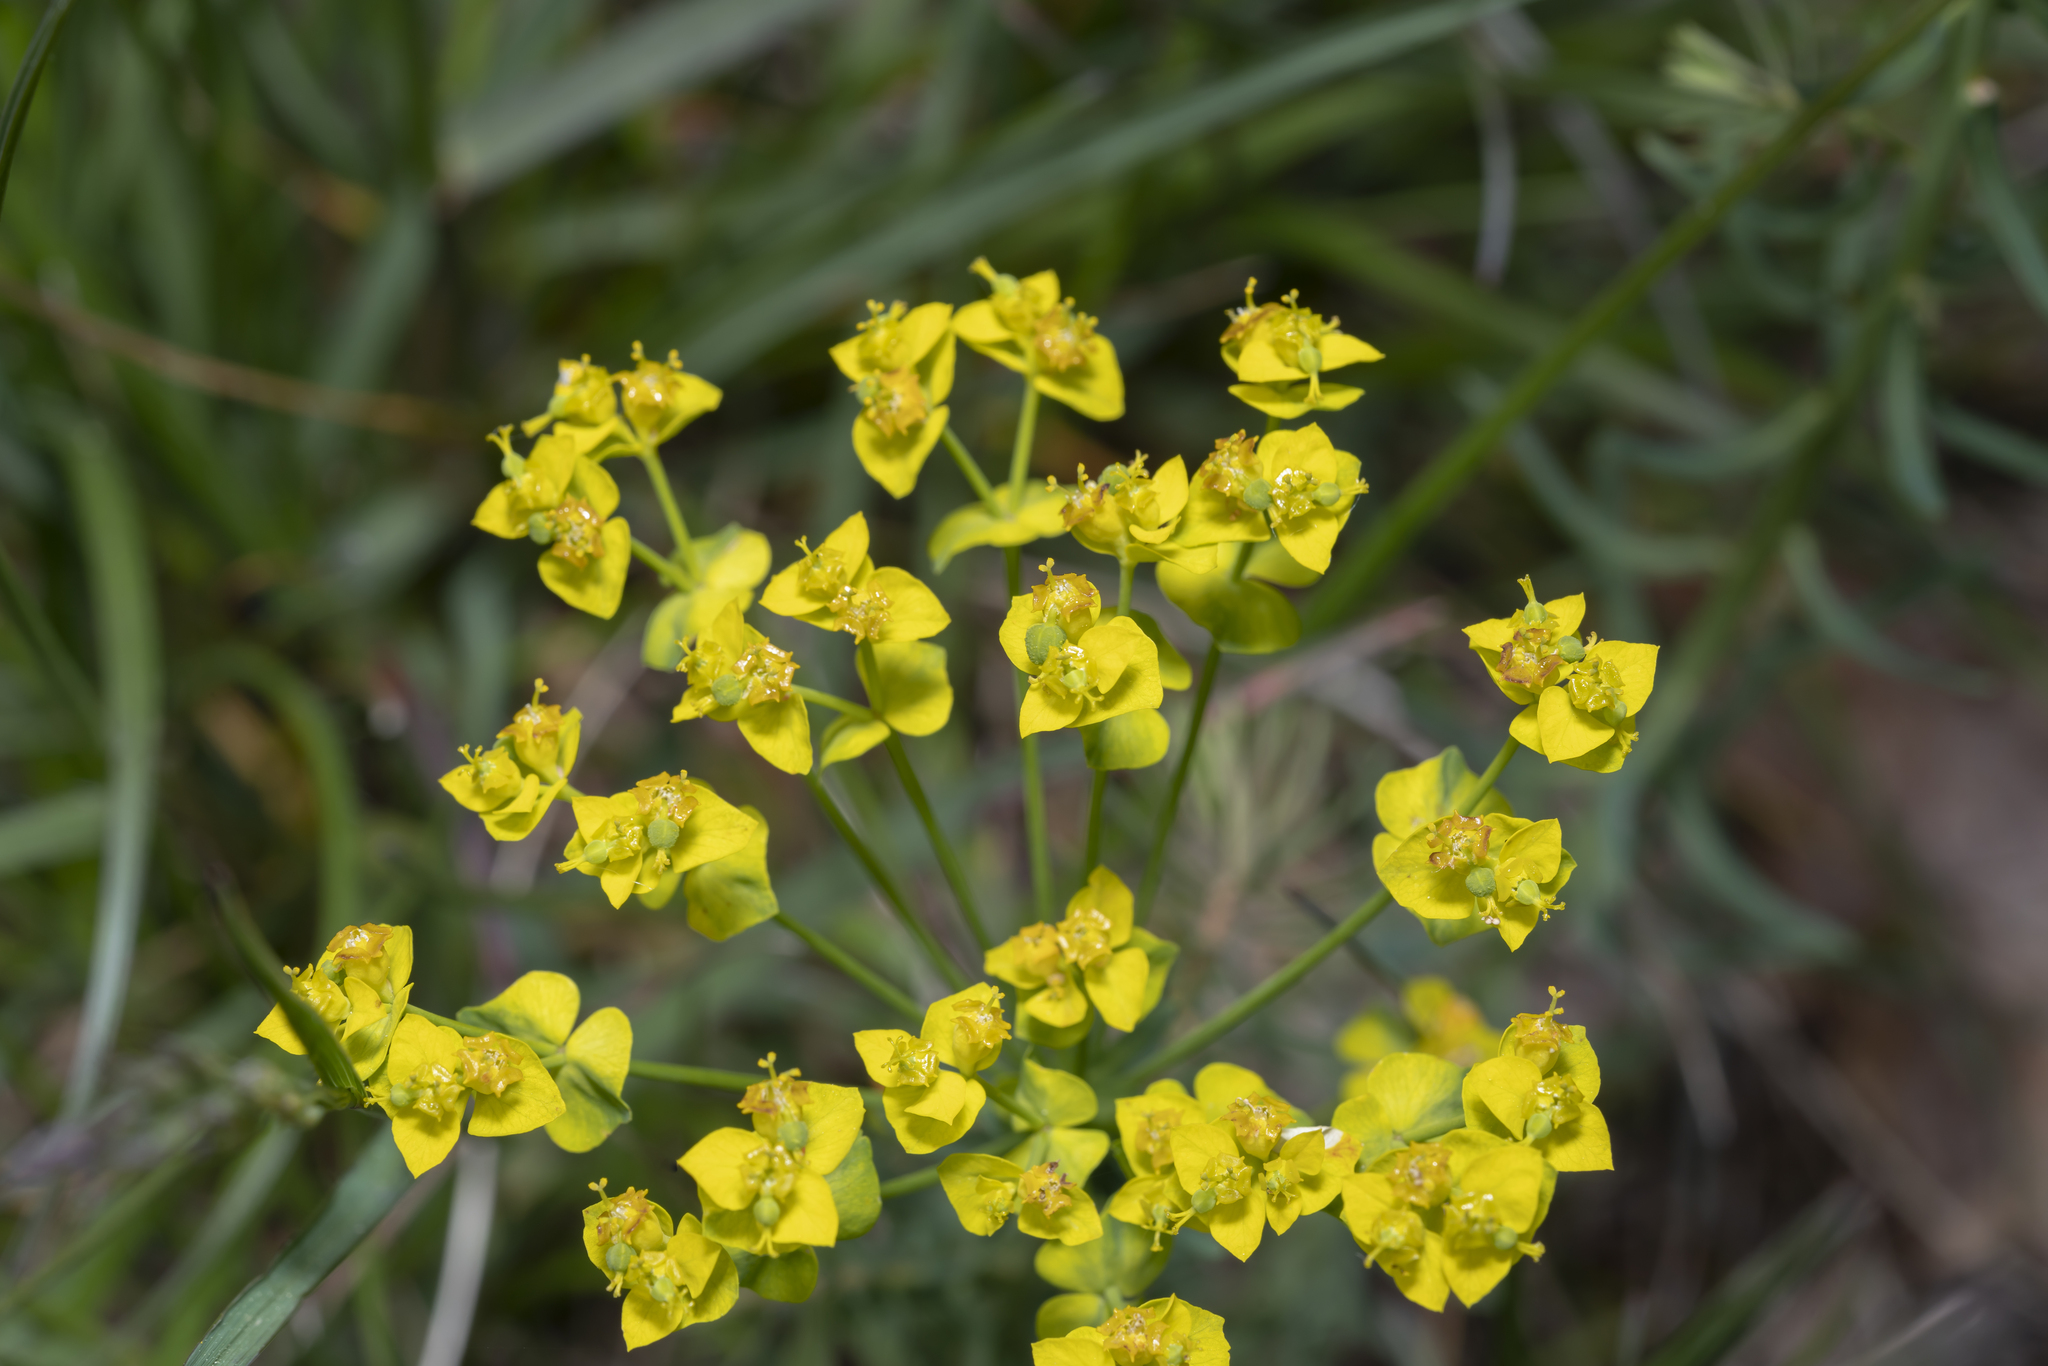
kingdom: Plantae
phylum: Tracheophyta
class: Magnoliopsida
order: Malpighiales
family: Euphorbiaceae
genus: Euphorbia
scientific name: Euphorbia cyparissias
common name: Cypress spurge
